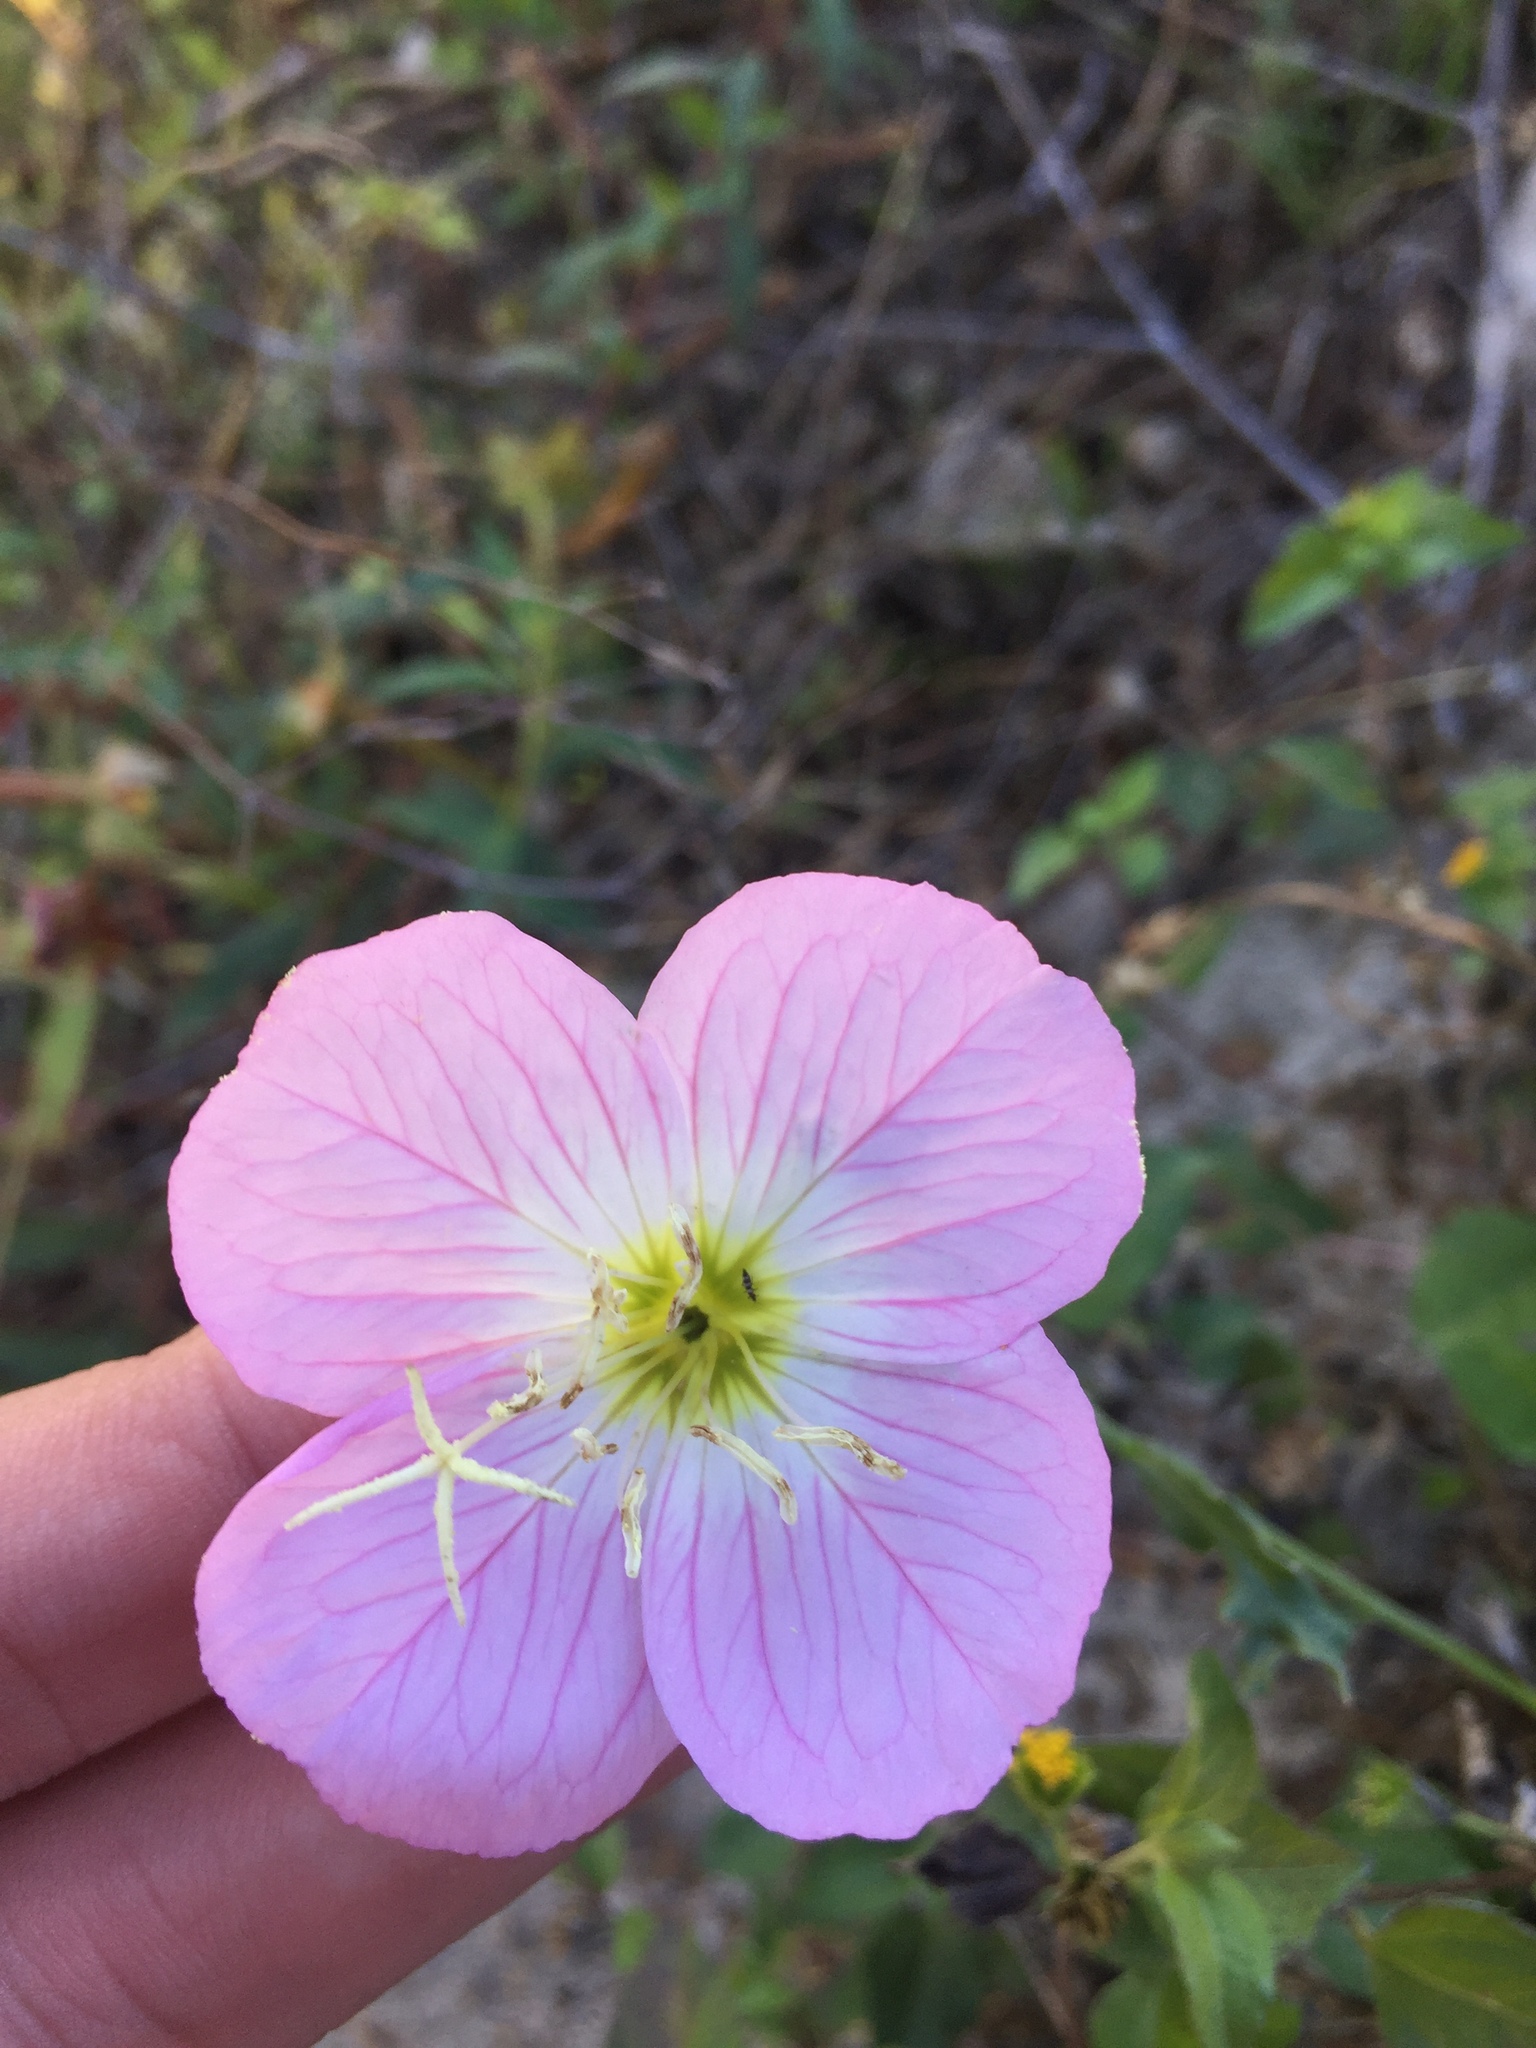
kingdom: Plantae
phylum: Tracheophyta
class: Magnoliopsida
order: Myrtales
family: Onagraceae
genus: Oenothera
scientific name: Oenothera speciosa
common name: White evening-primrose
